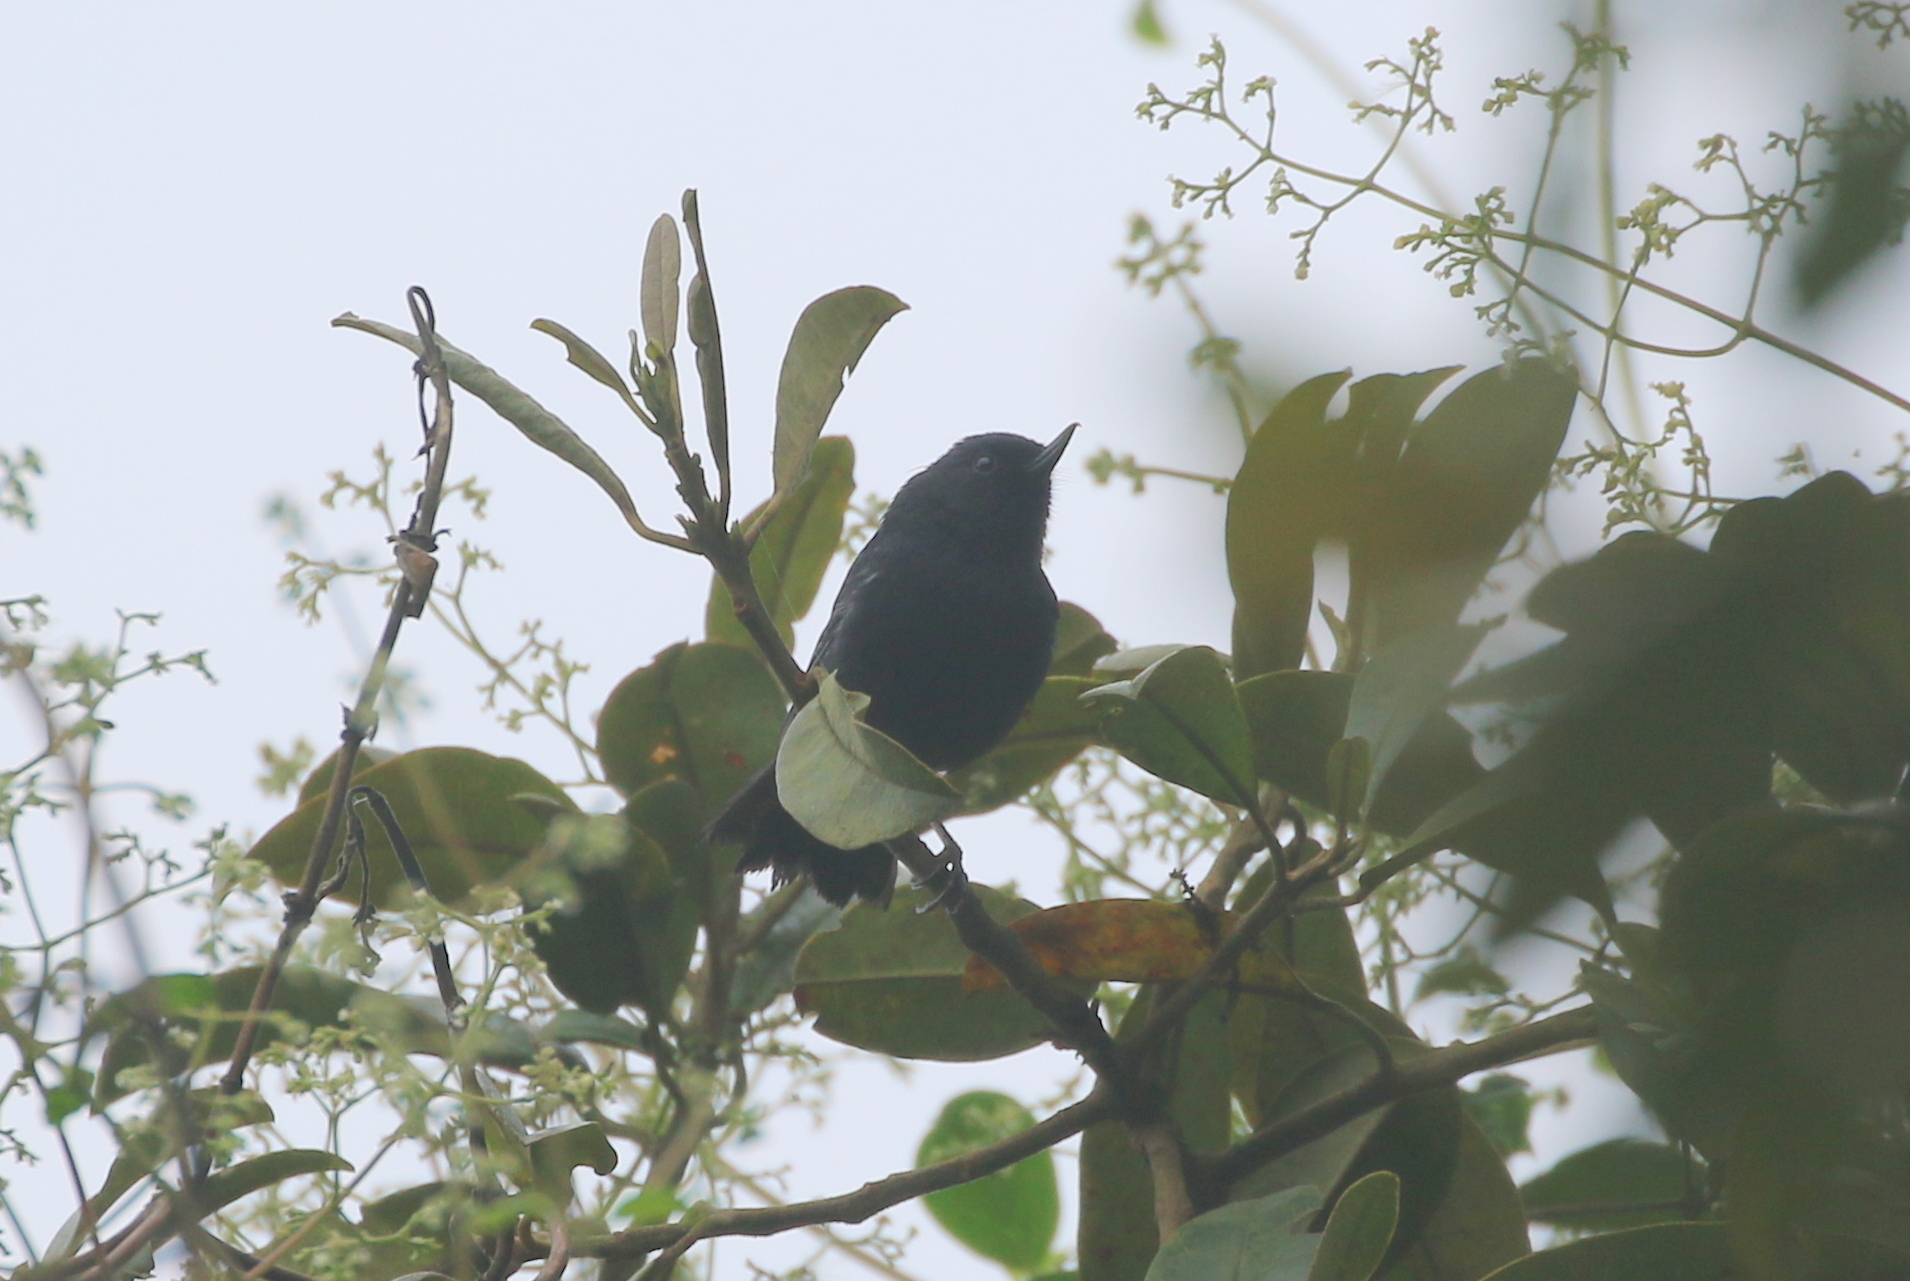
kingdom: Animalia
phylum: Chordata
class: Aves
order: Passeriformes
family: Thraupidae
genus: Diglossa
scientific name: Diglossa humeralis
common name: Black flowerpiercer
